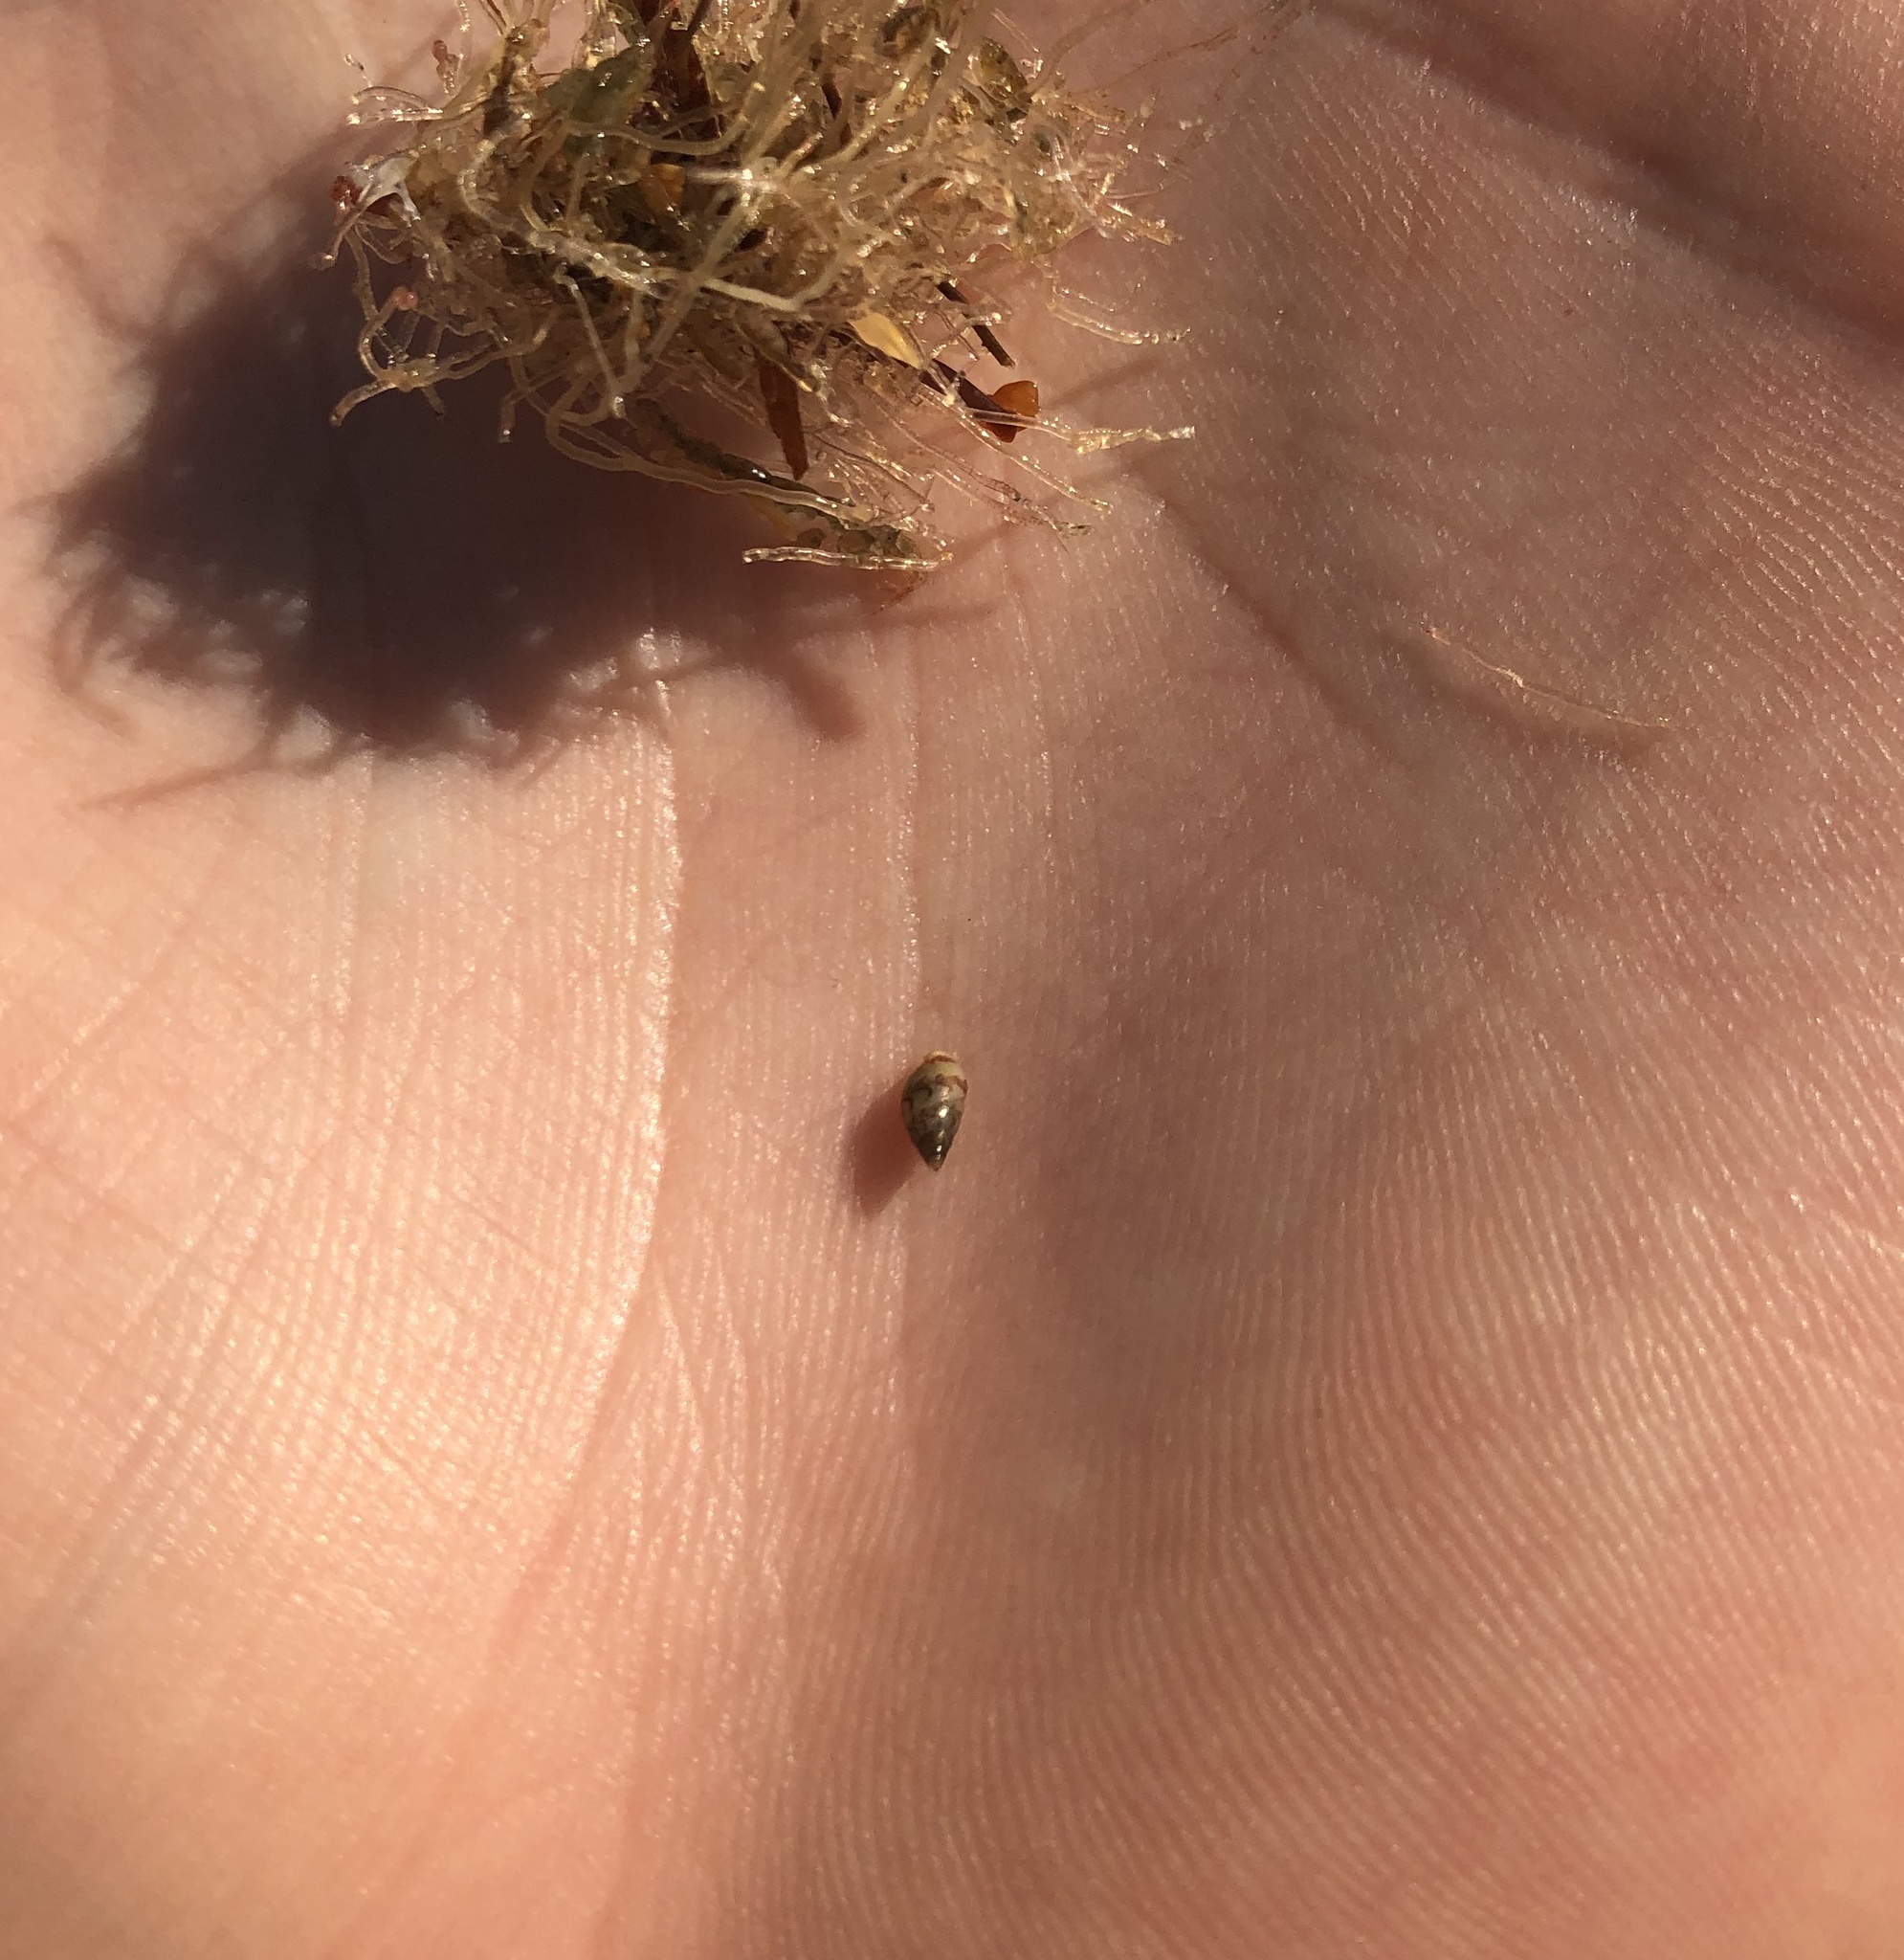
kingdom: Animalia
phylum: Mollusca
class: Gastropoda
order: Neogastropoda
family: Columbellidae
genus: Astyris
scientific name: Astyris lunata
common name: Lunar dovesnail
